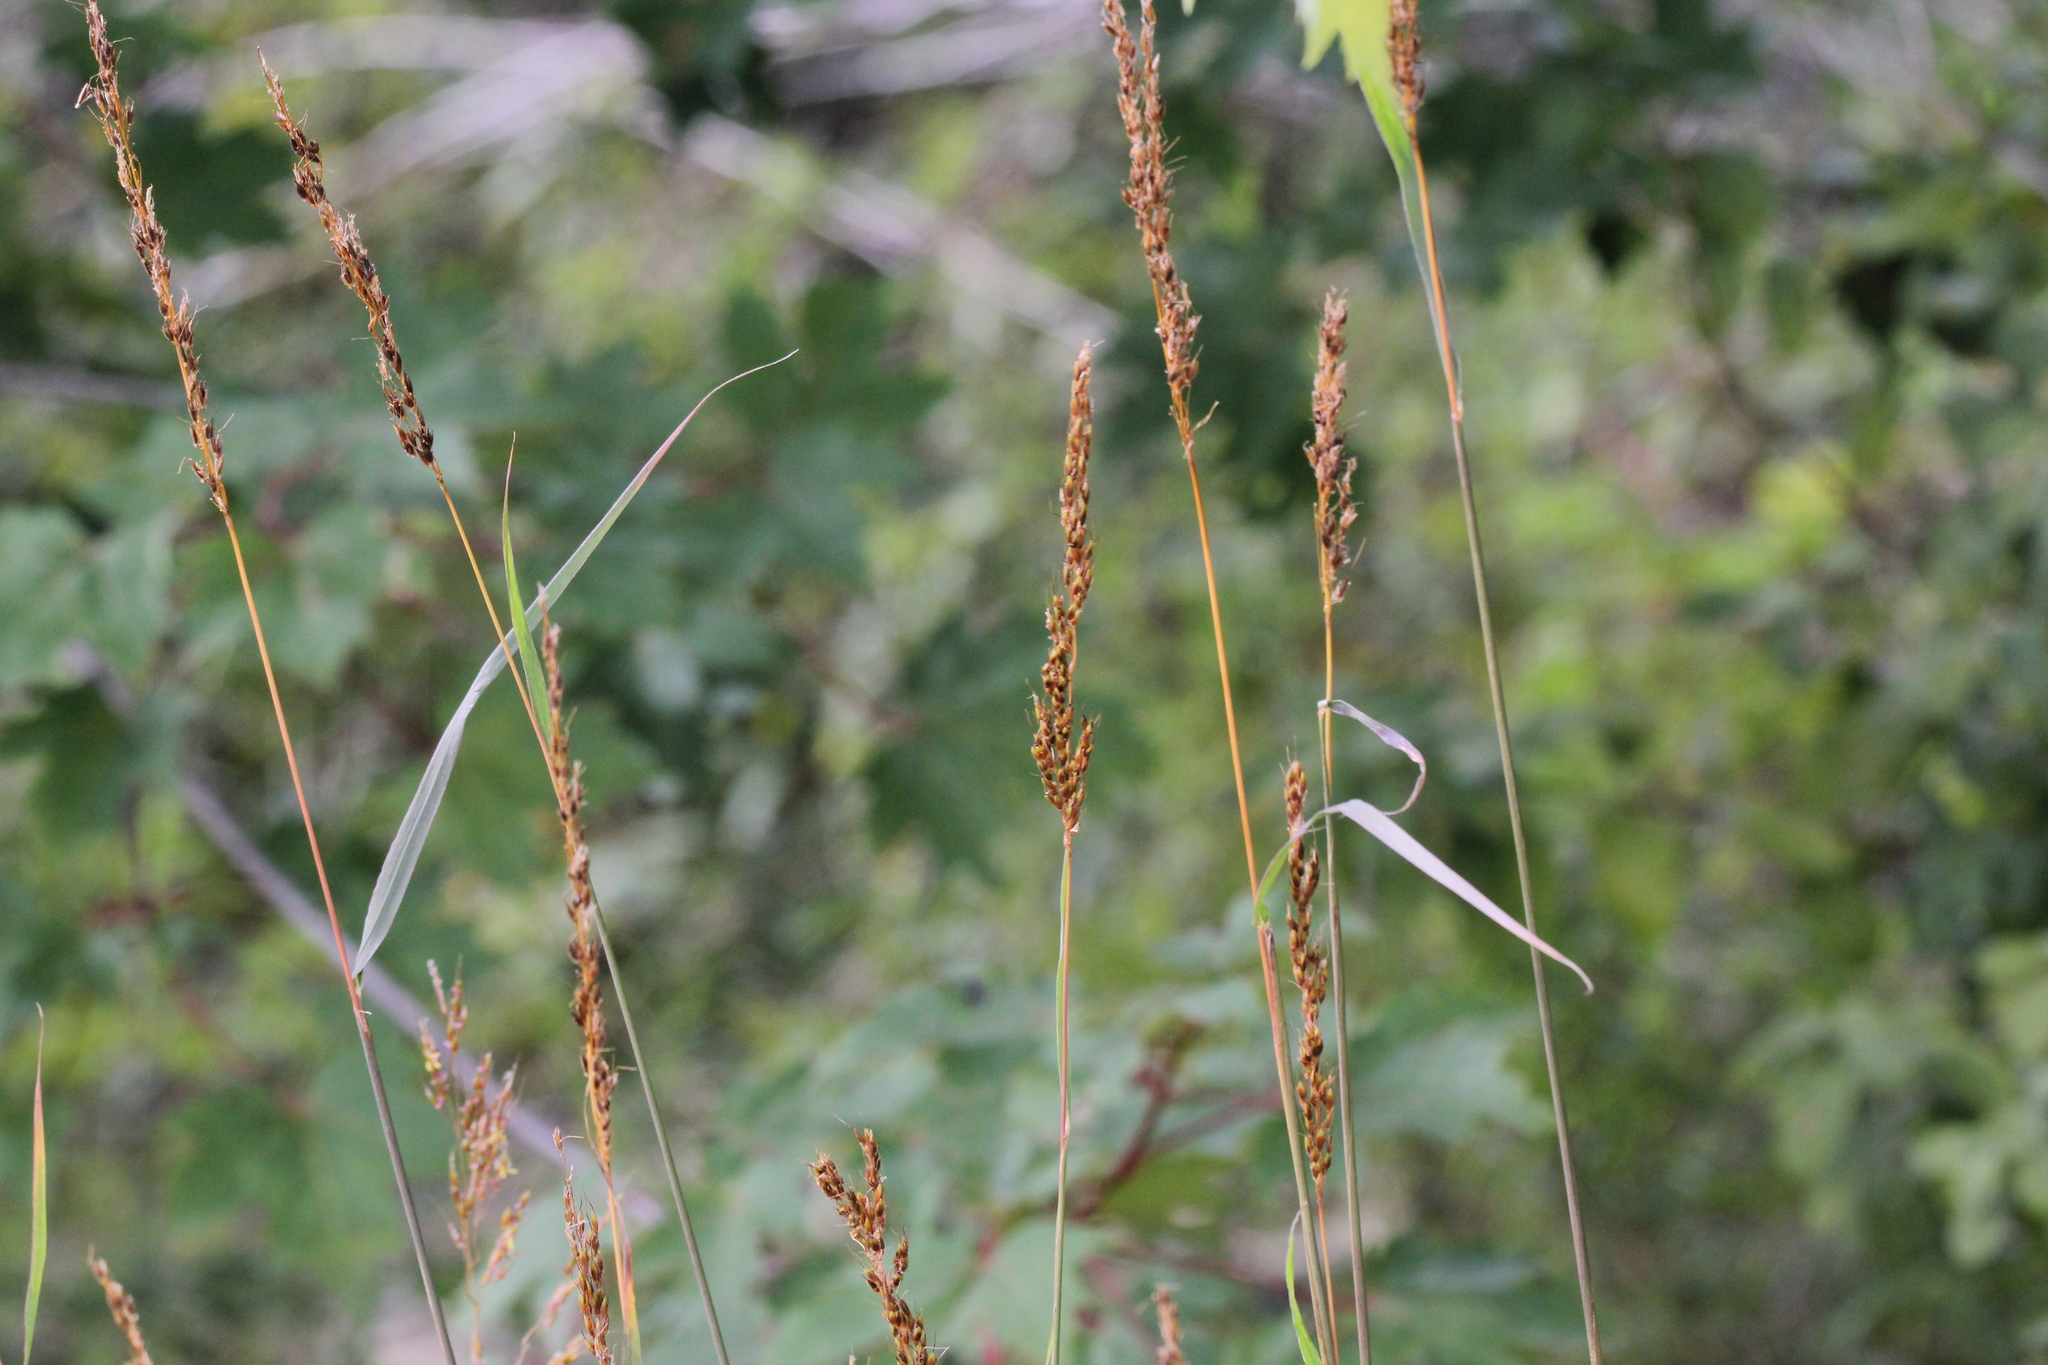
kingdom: Plantae
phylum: Tracheophyta
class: Liliopsida
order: Poales
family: Poaceae
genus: Sorghastrum
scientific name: Sorghastrum nutans
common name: Indian grass
